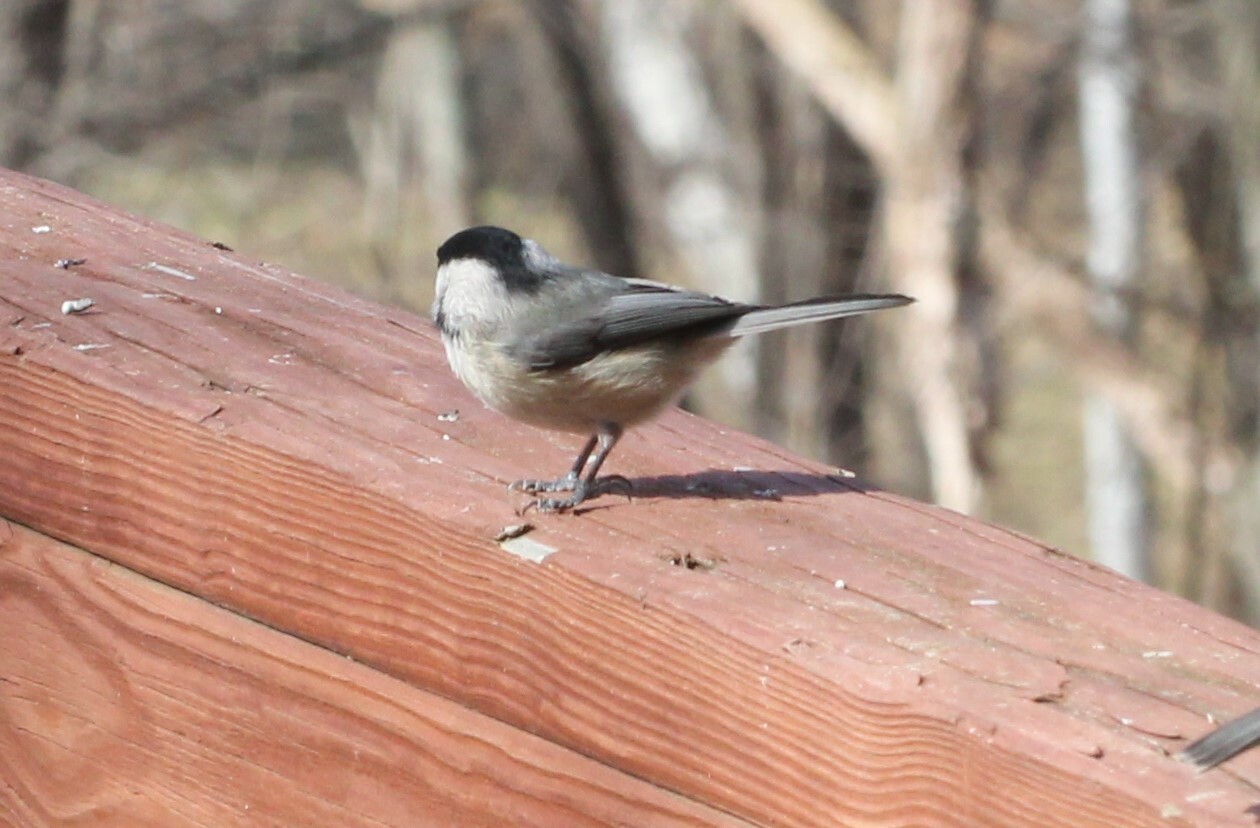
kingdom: Animalia
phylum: Chordata
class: Aves
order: Passeriformes
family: Paridae
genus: Poecile
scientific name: Poecile carolinensis
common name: Carolina chickadee
